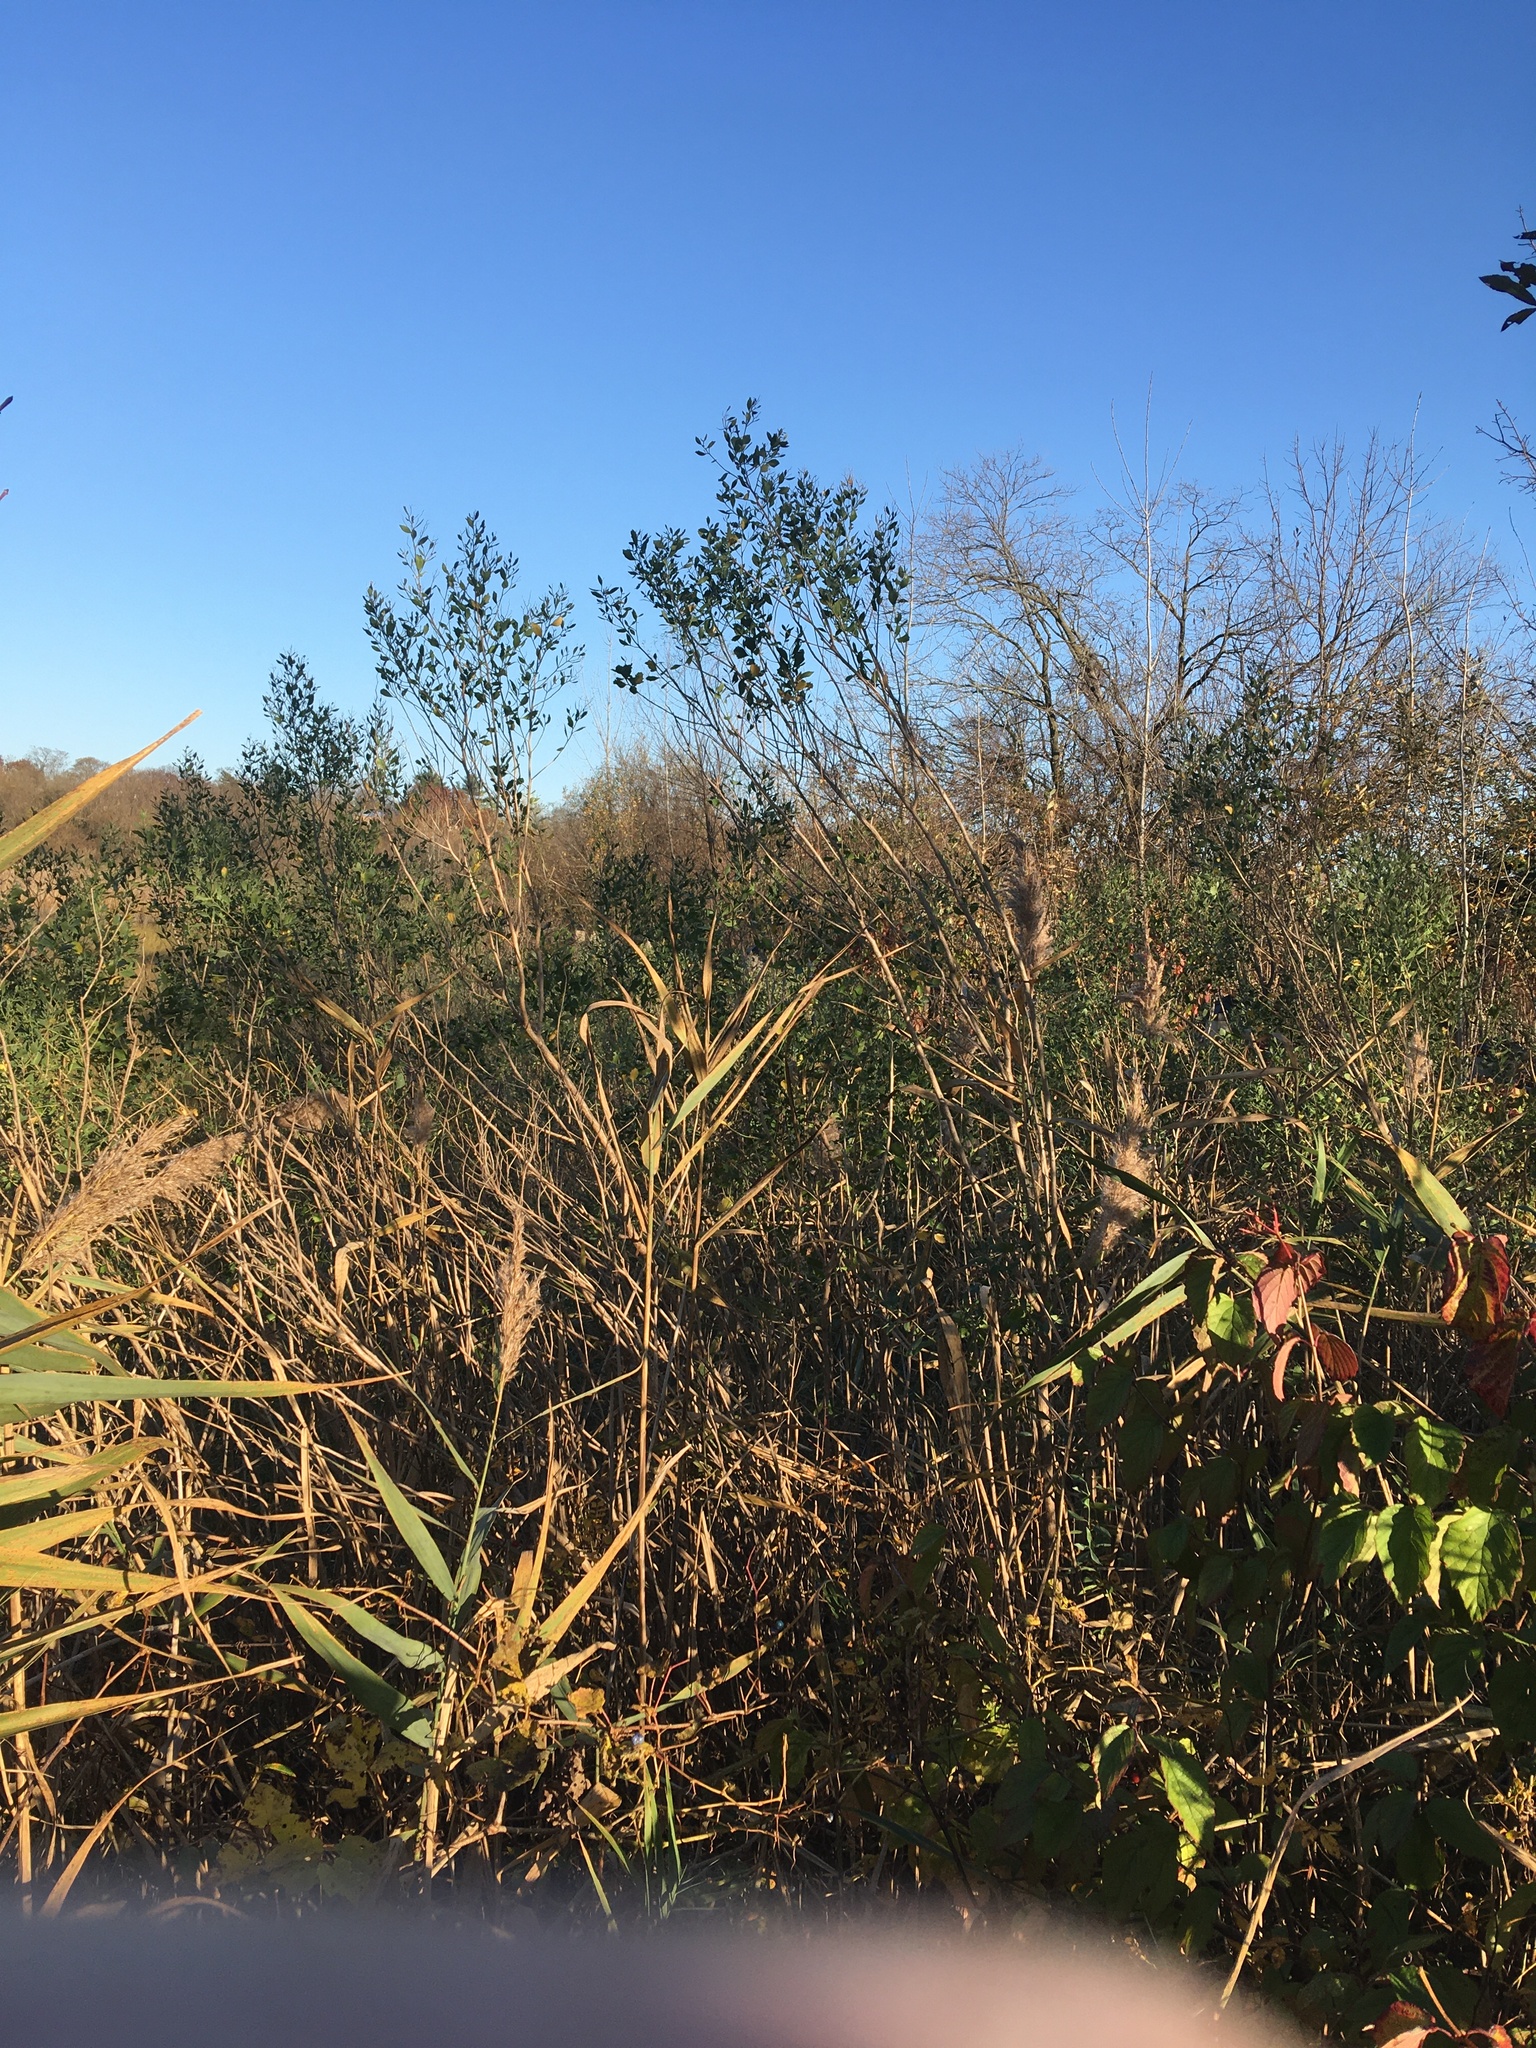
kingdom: Plantae
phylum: Tracheophyta
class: Magnoliopsida
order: Asterales
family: Asteraceae
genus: Baccharis
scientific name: Baccharis halimifolia
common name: Eastern baccharis
